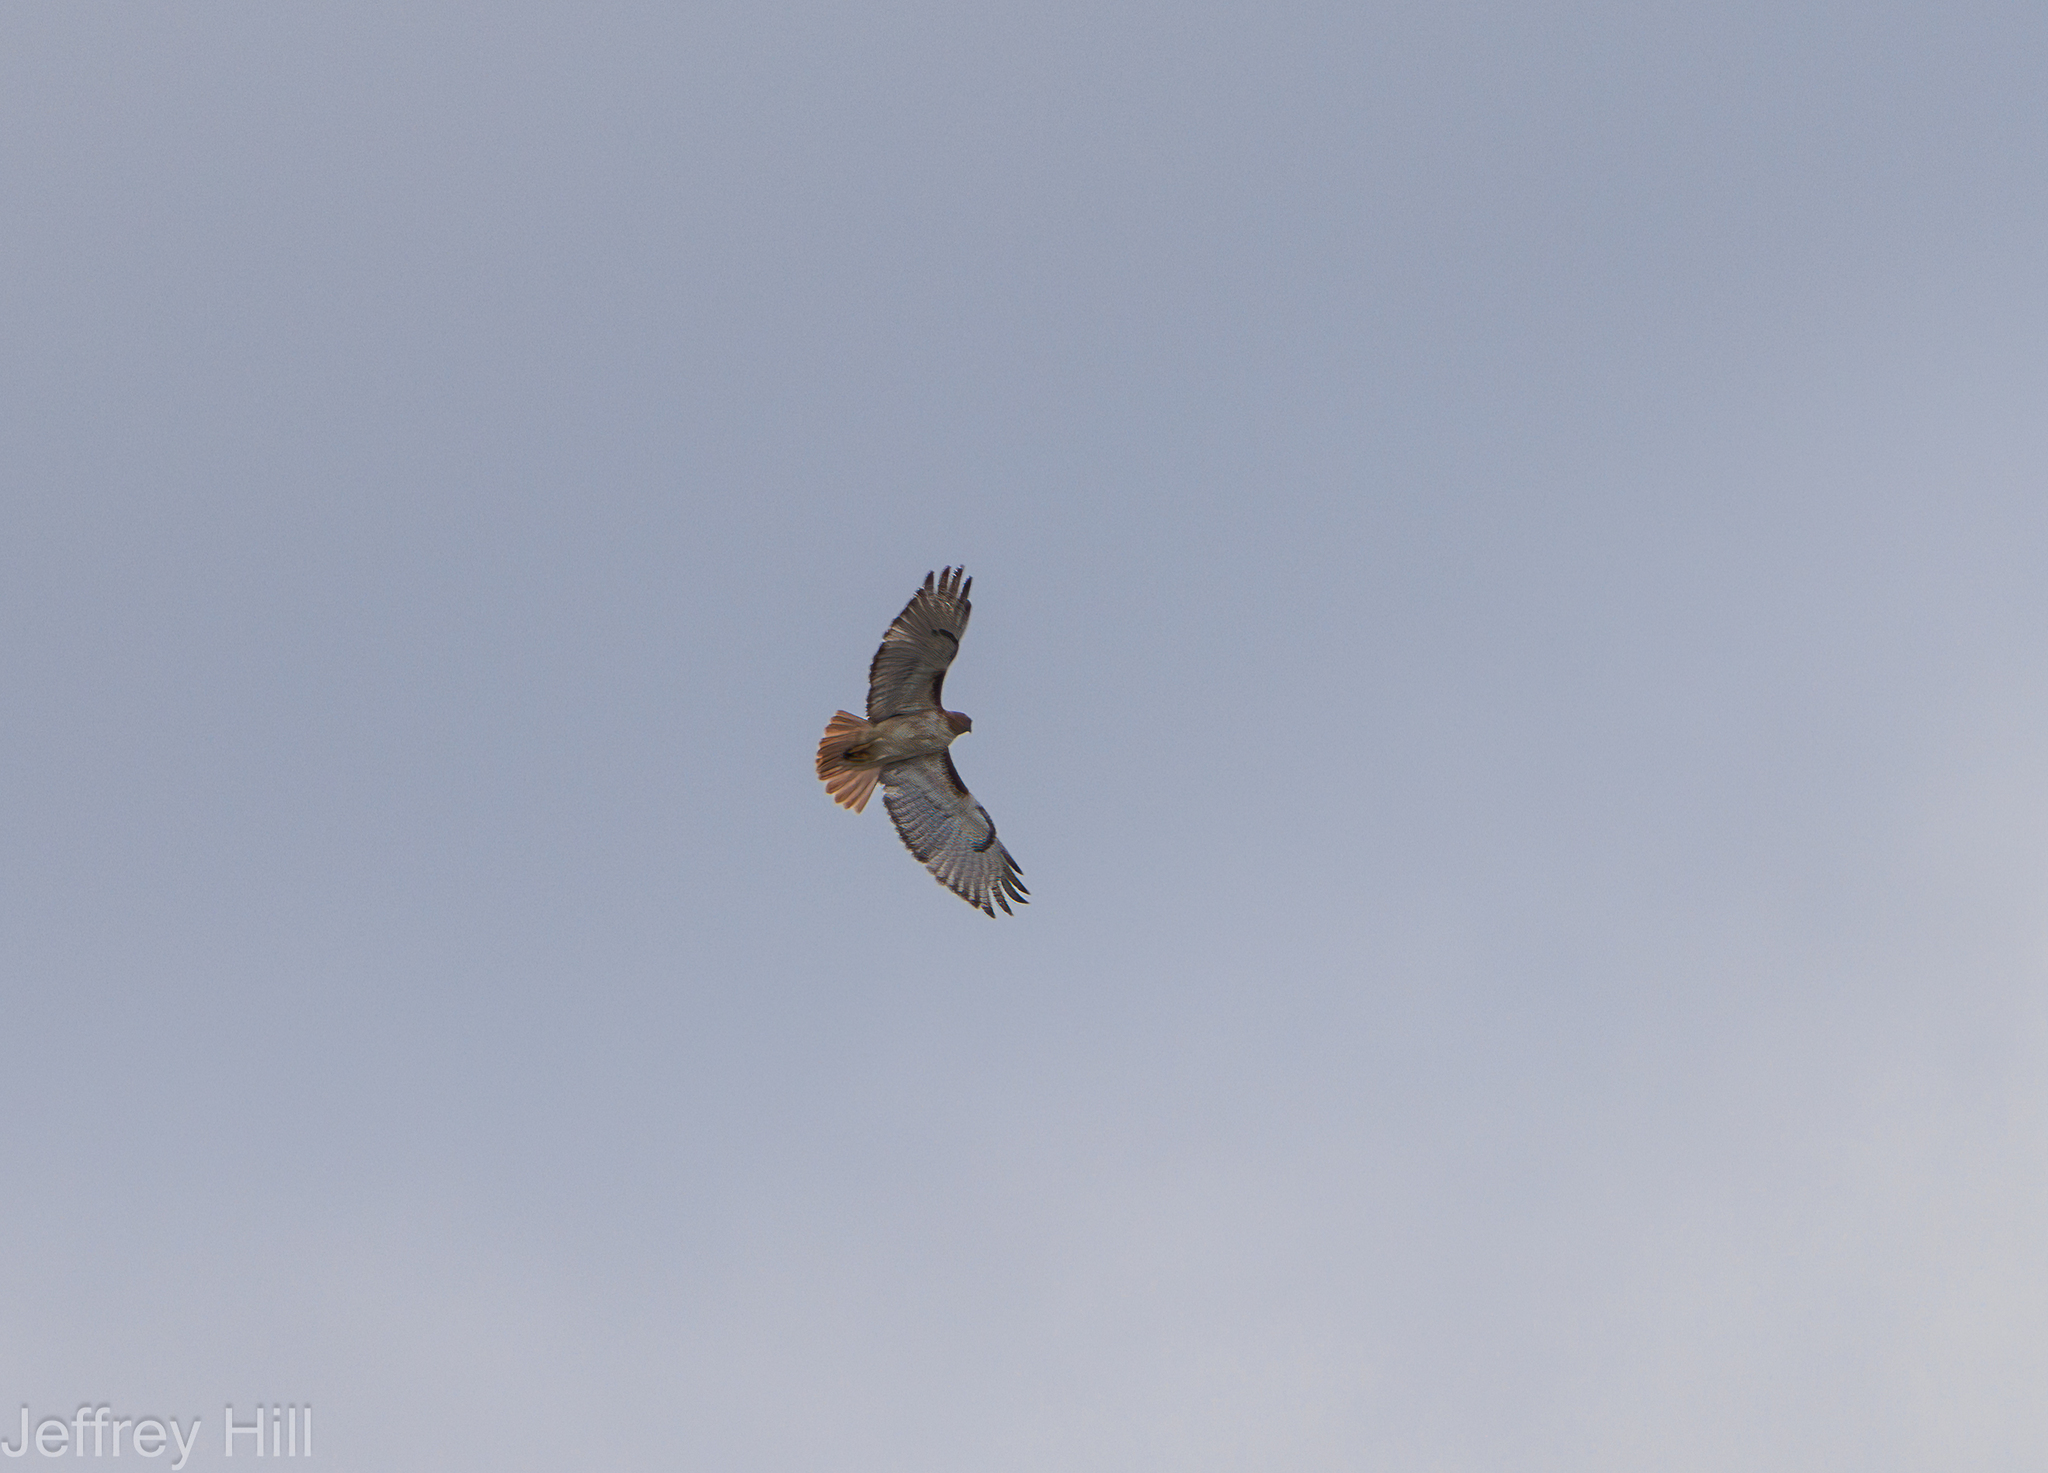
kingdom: Animalia
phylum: Chordata
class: Aves
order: Accipitriformes
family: Accipitridae
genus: Buteo
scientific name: Buteo jamaicensis
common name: Red-tailed hawk
